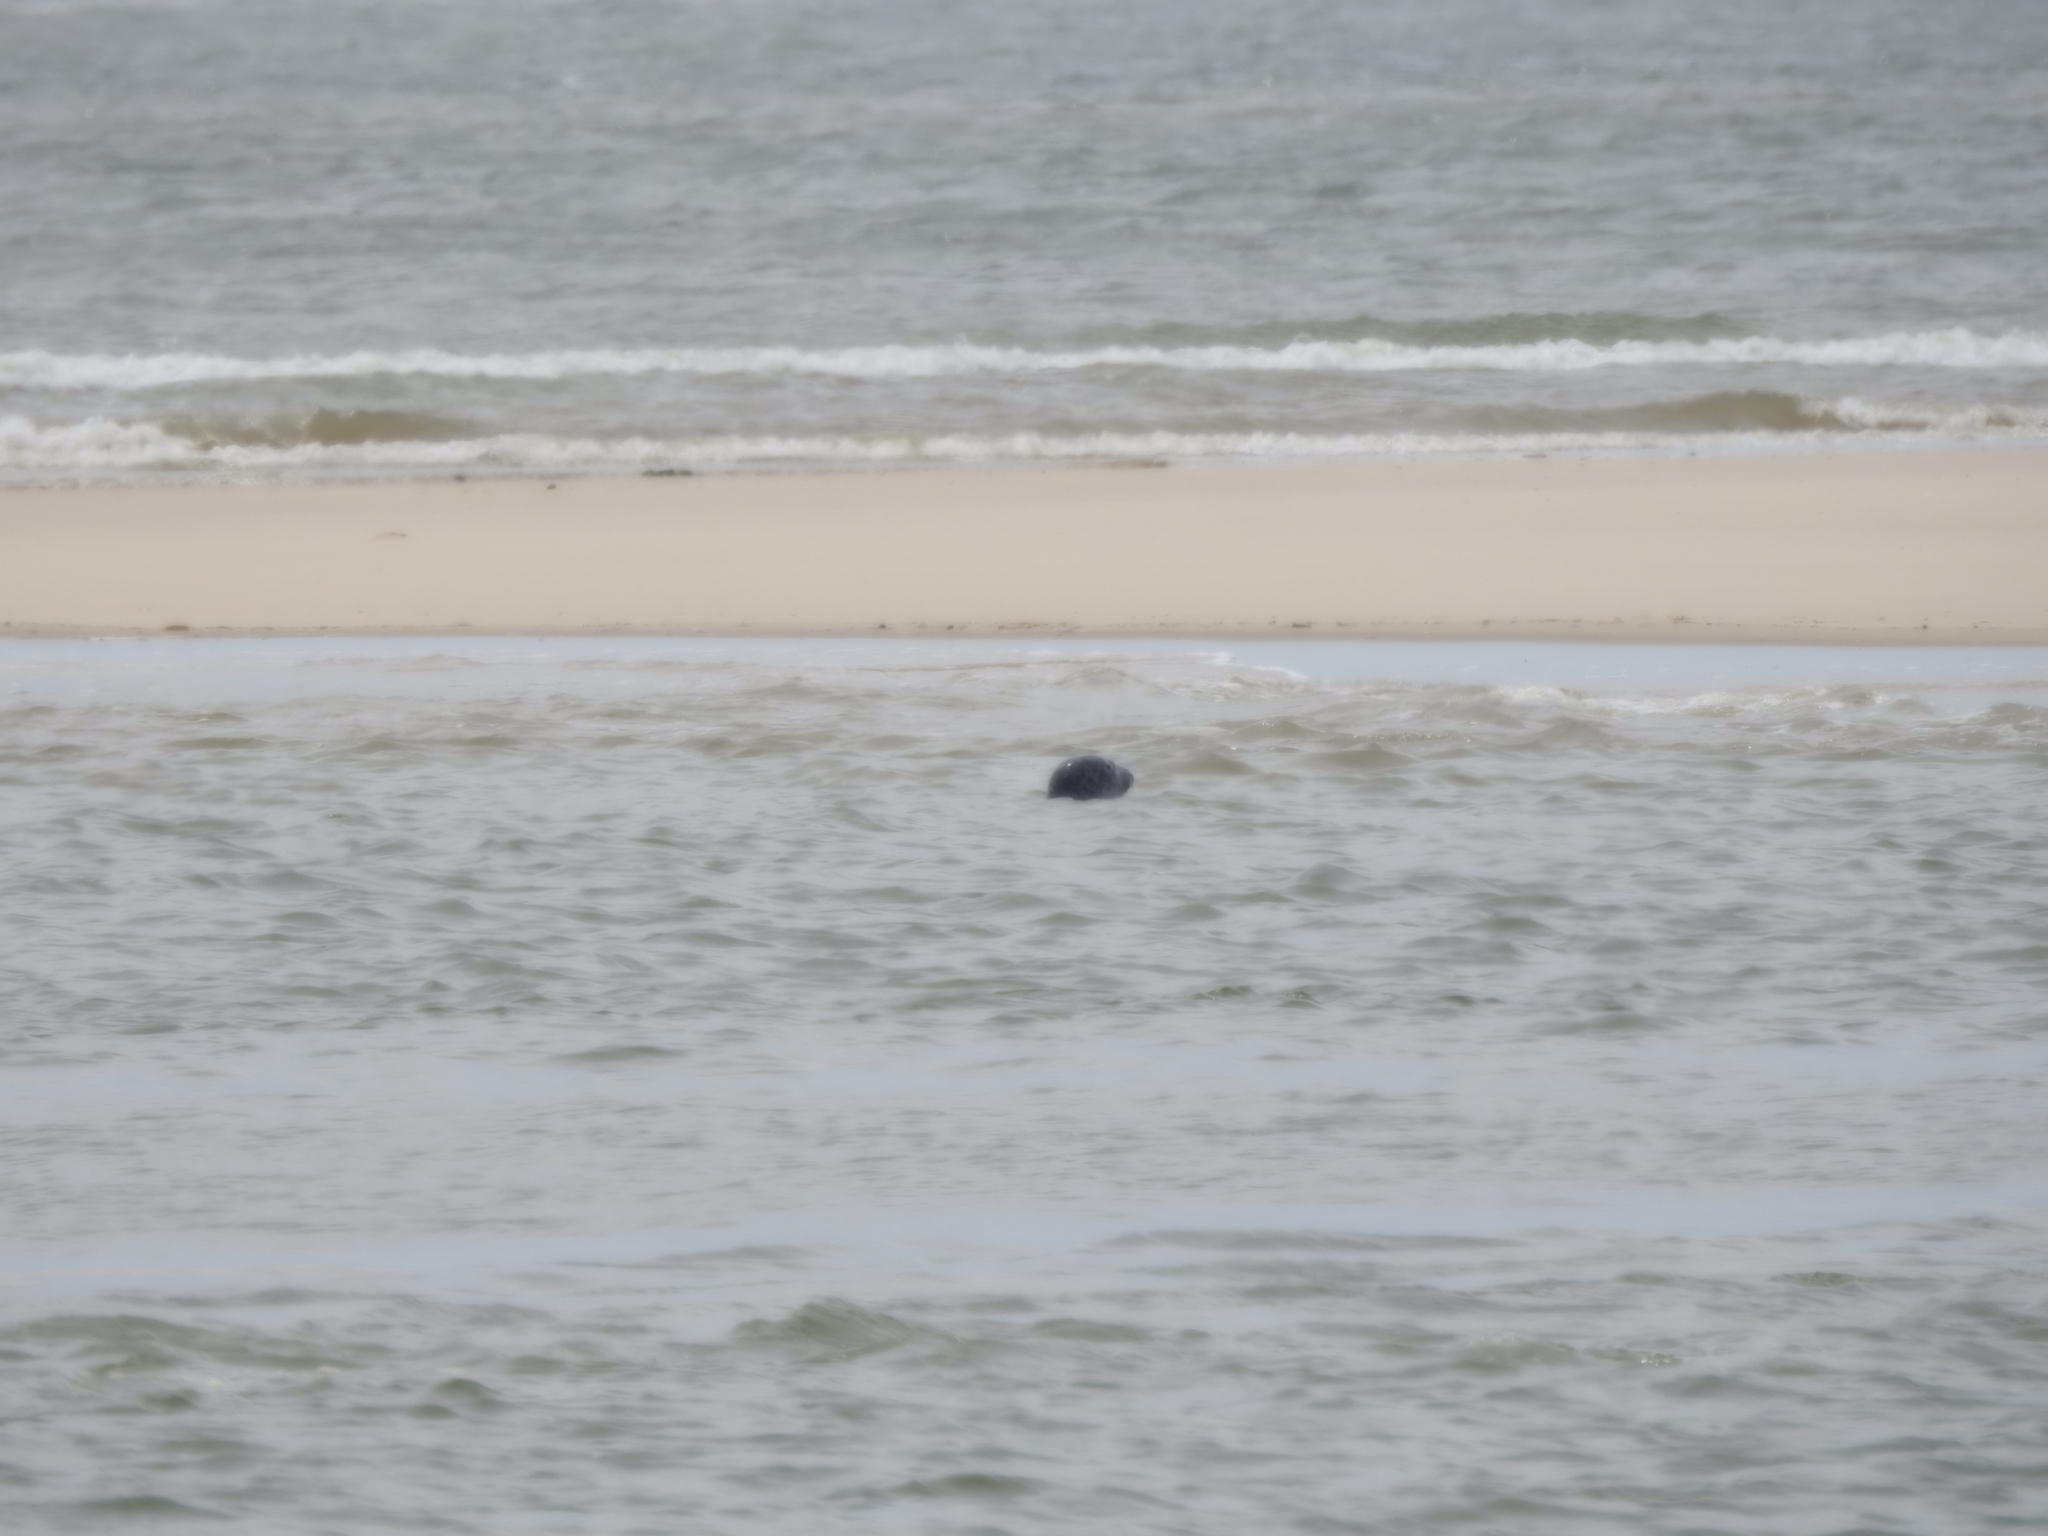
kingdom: Animalia
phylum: Chordata
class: Mammalia
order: Carnivora
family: Phocidae
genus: Phoca
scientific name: Phoca vitulina
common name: Harbor seal
